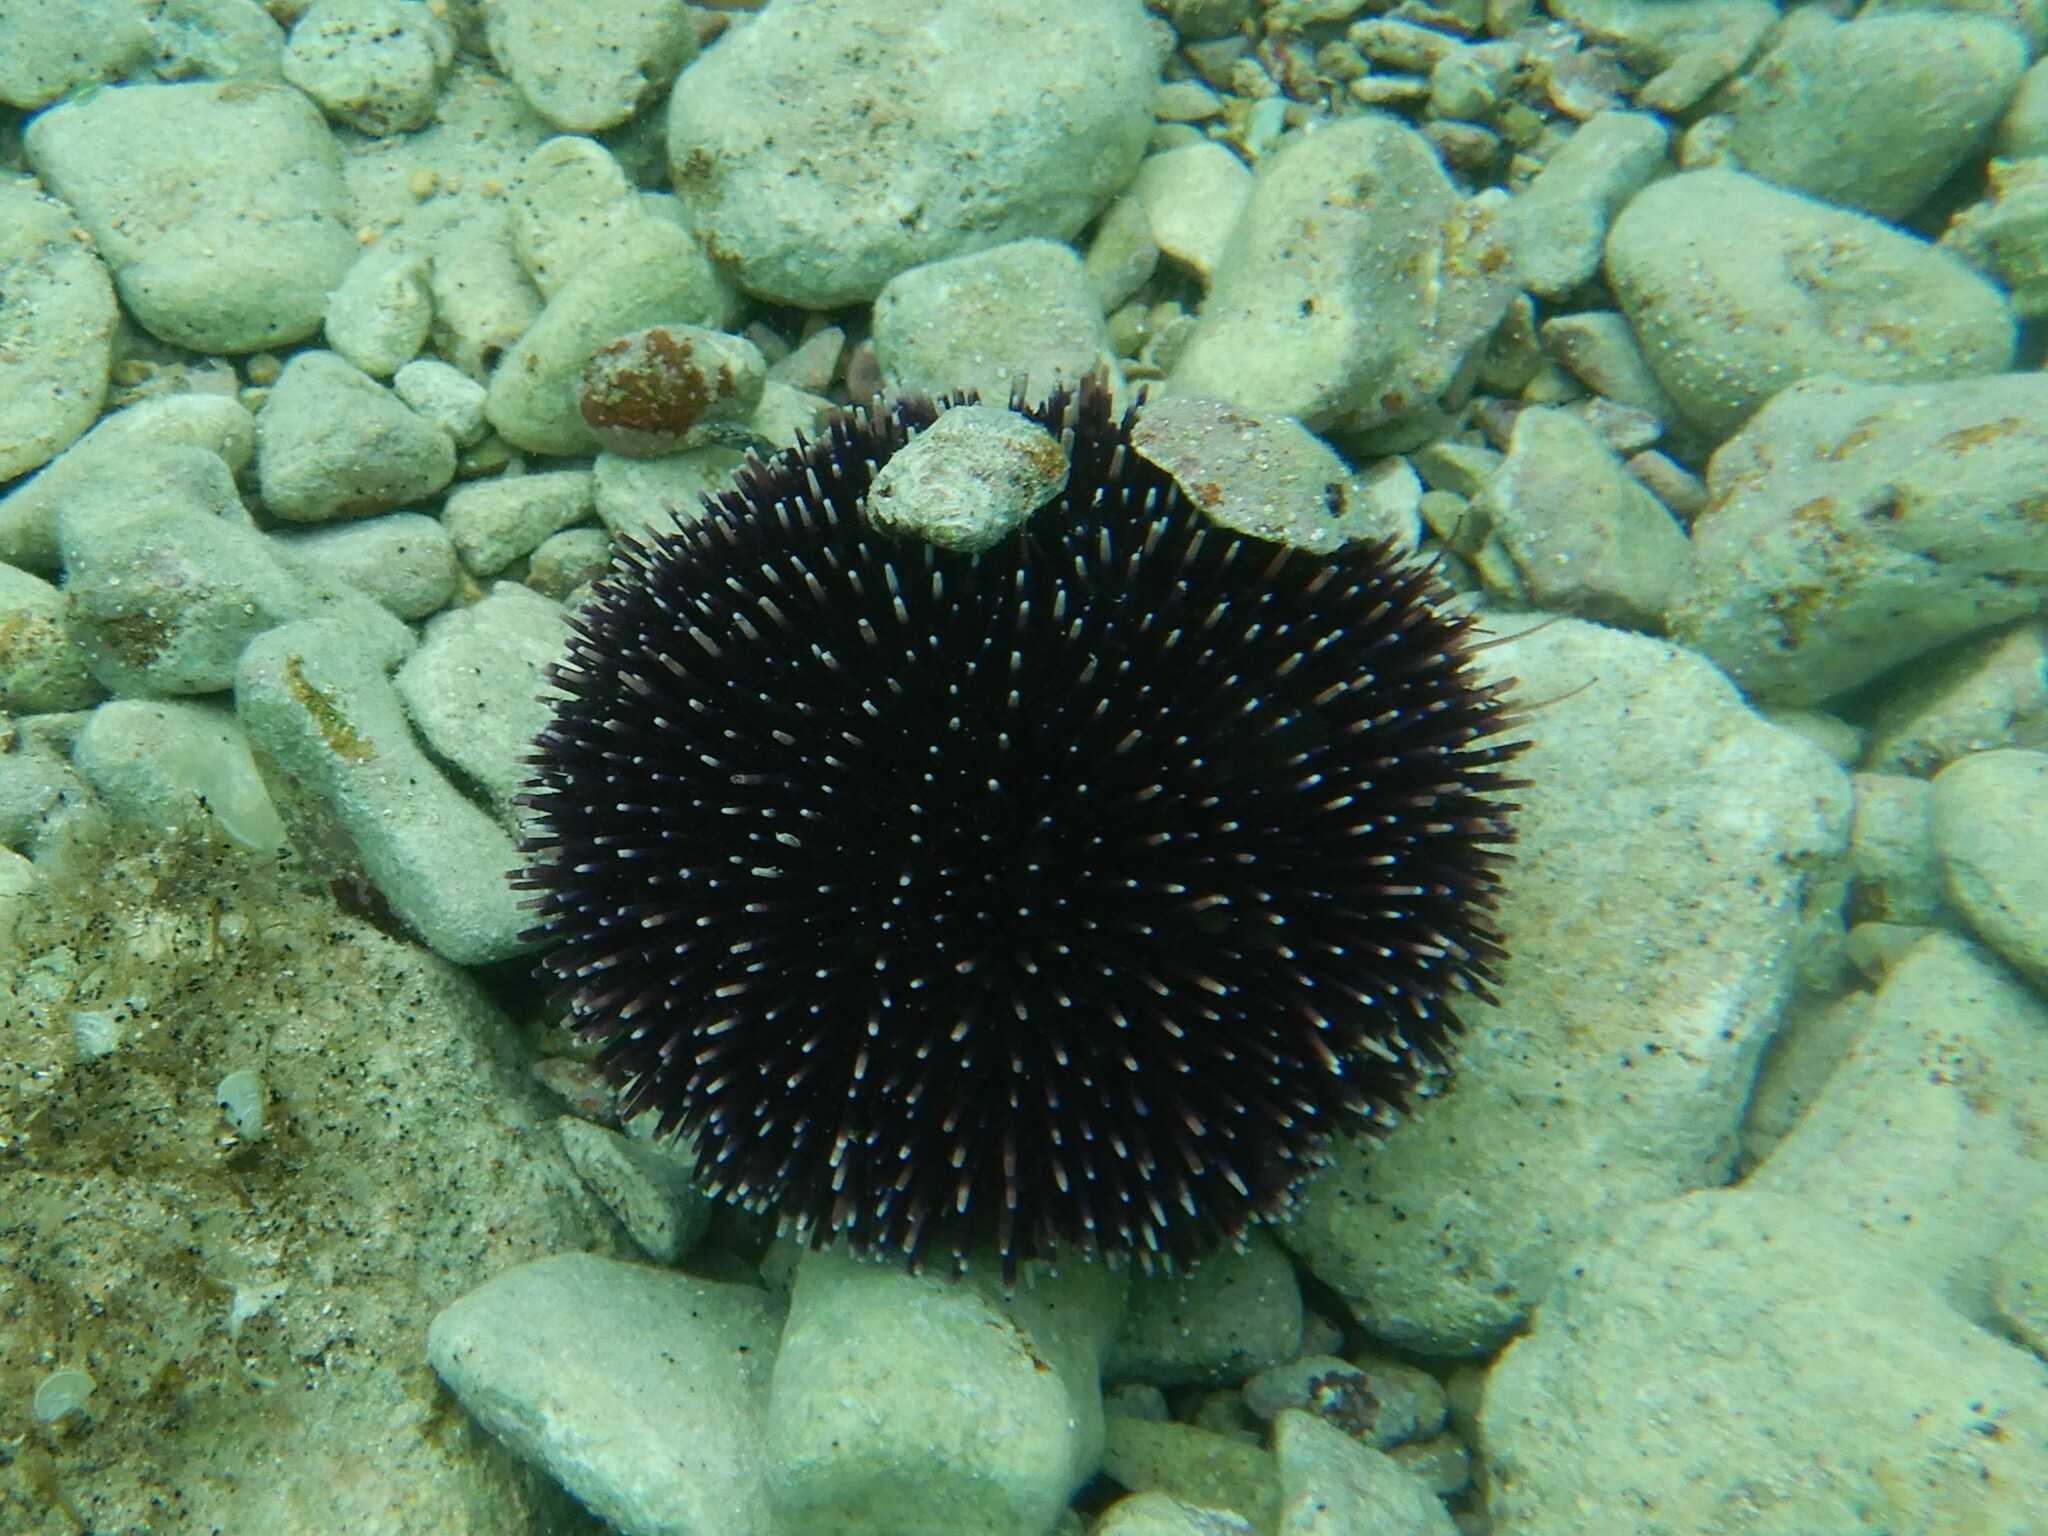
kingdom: Animalia
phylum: Echinodermata
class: Echinoidea
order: Camarodonta
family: Toxopneustidae
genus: Sphaerechinus
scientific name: Sphaerechinus granularis
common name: Violet sea urchin
